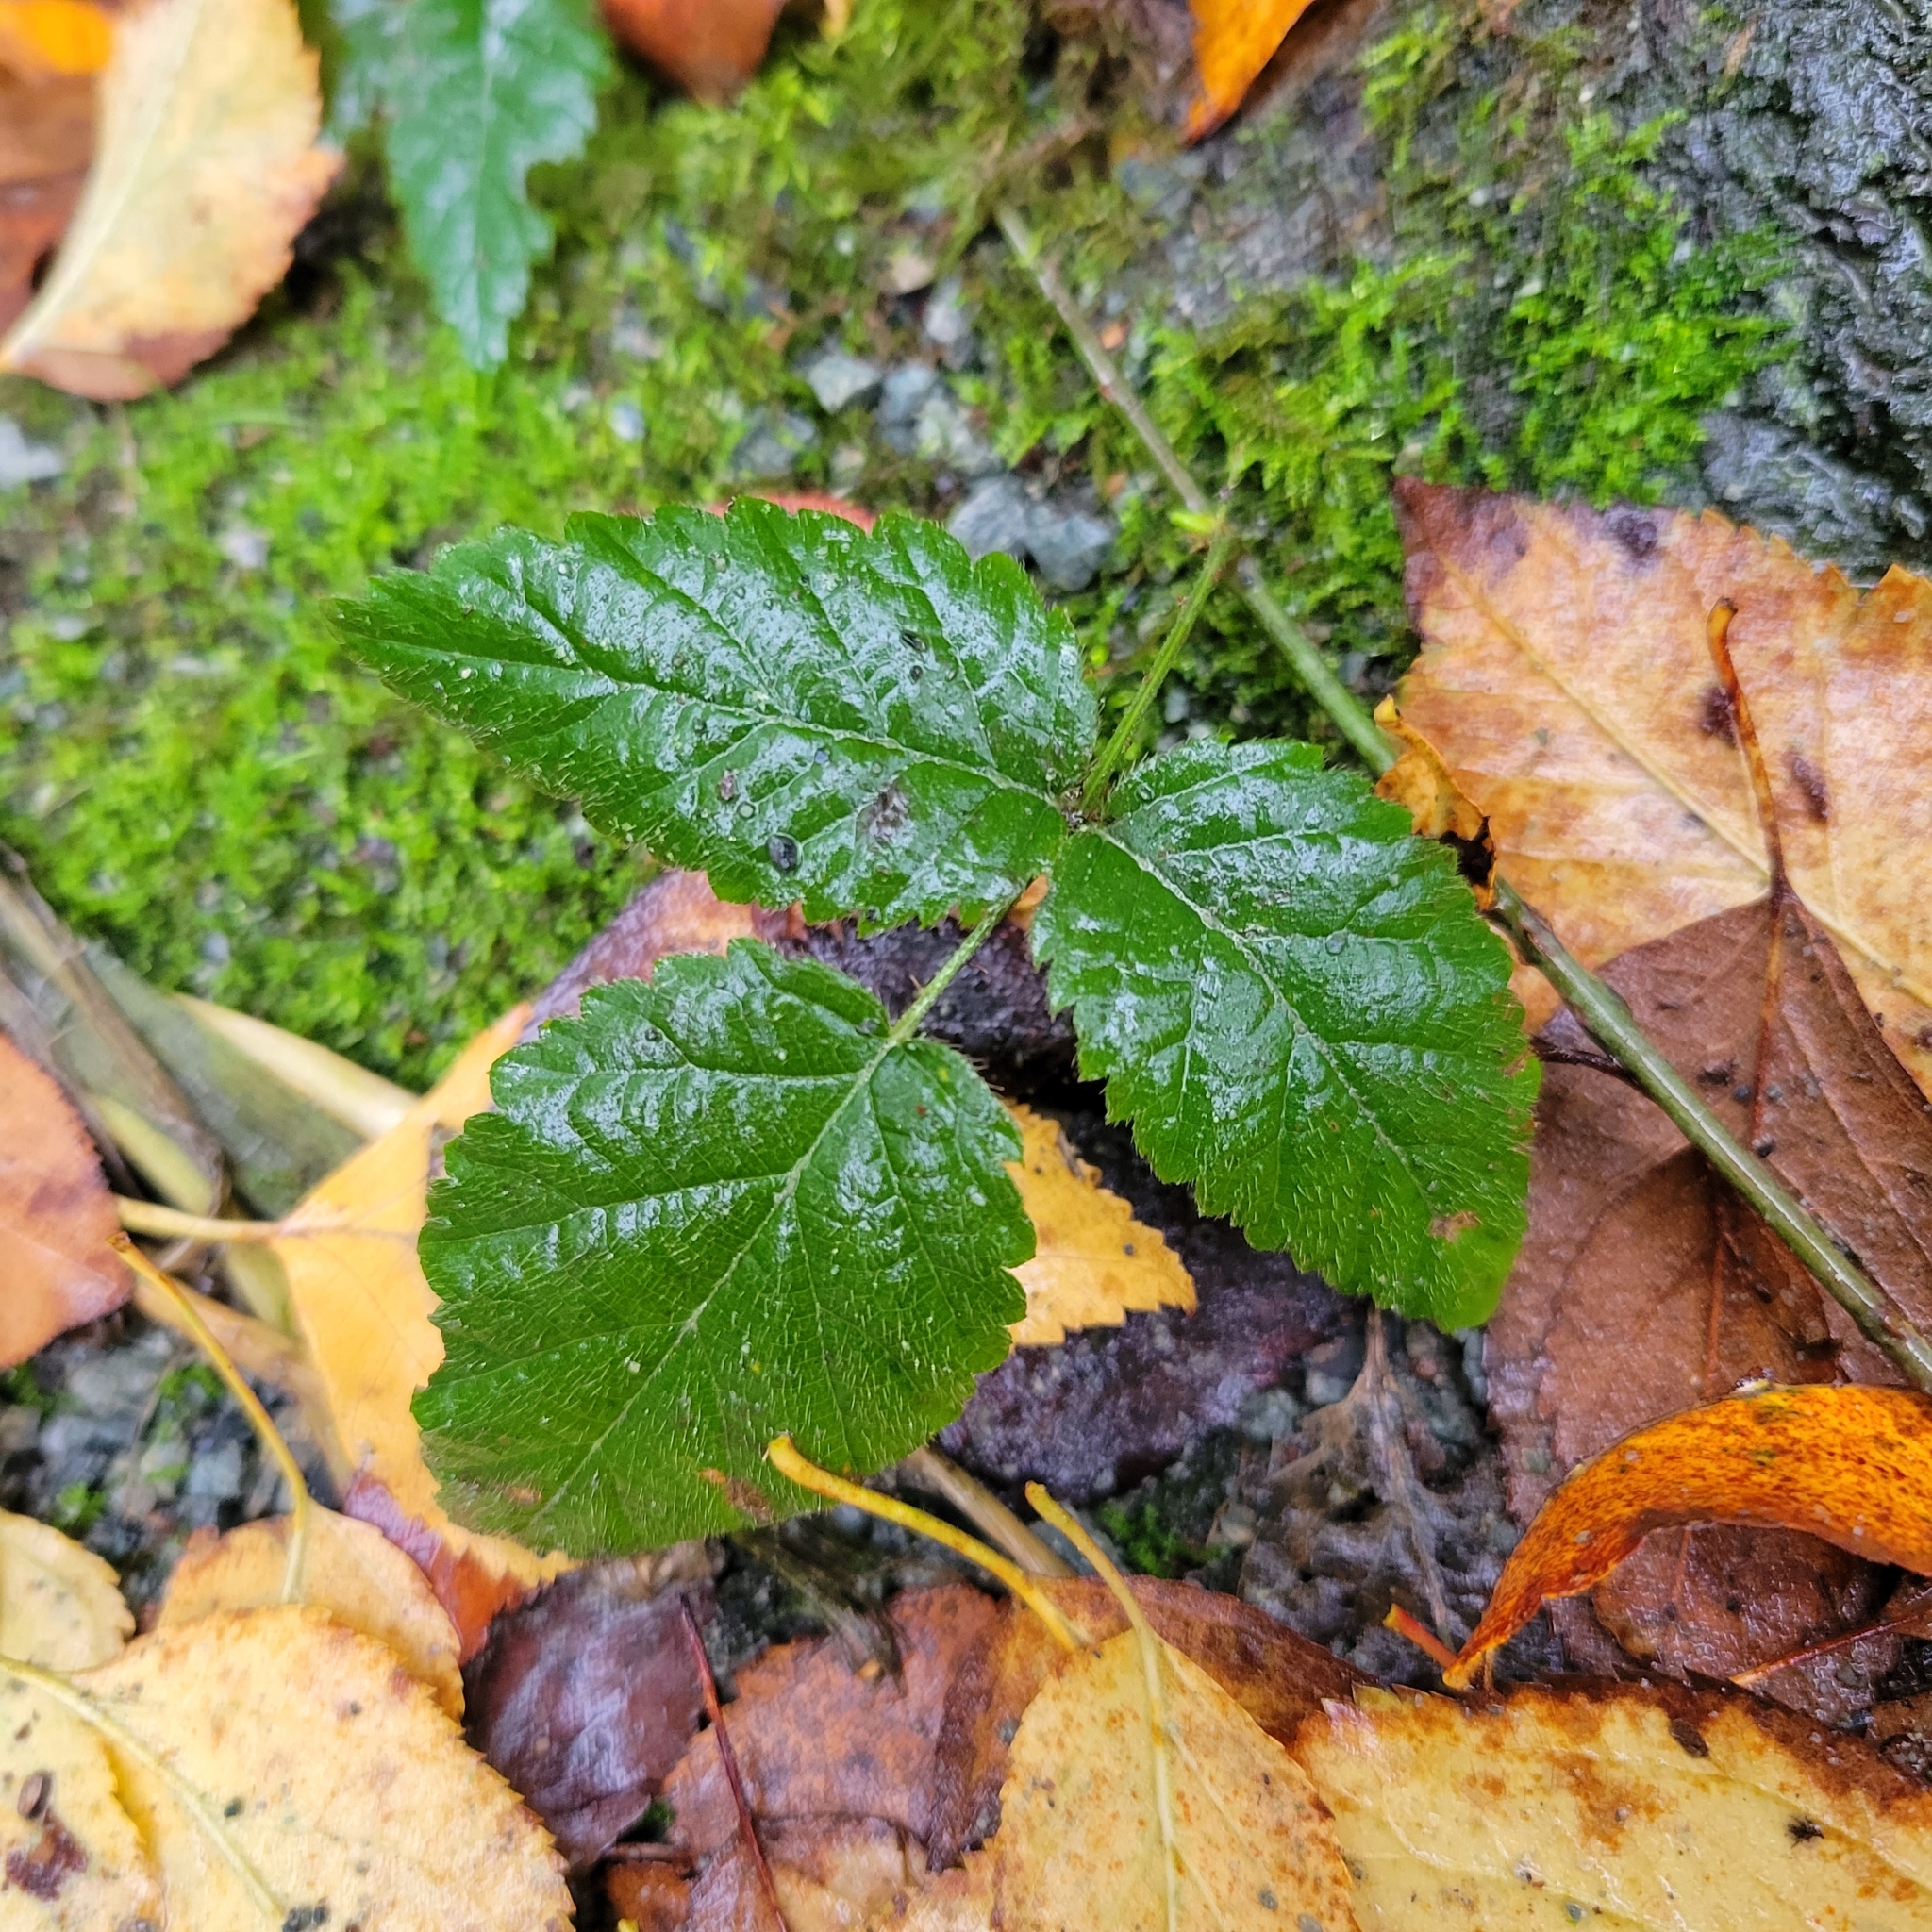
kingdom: Plantae
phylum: Tracheophyta
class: Magnoliopsida
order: Rosales
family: Rosaceae
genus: Rubus
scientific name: Rubus ursinus
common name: Pacific blackberry
